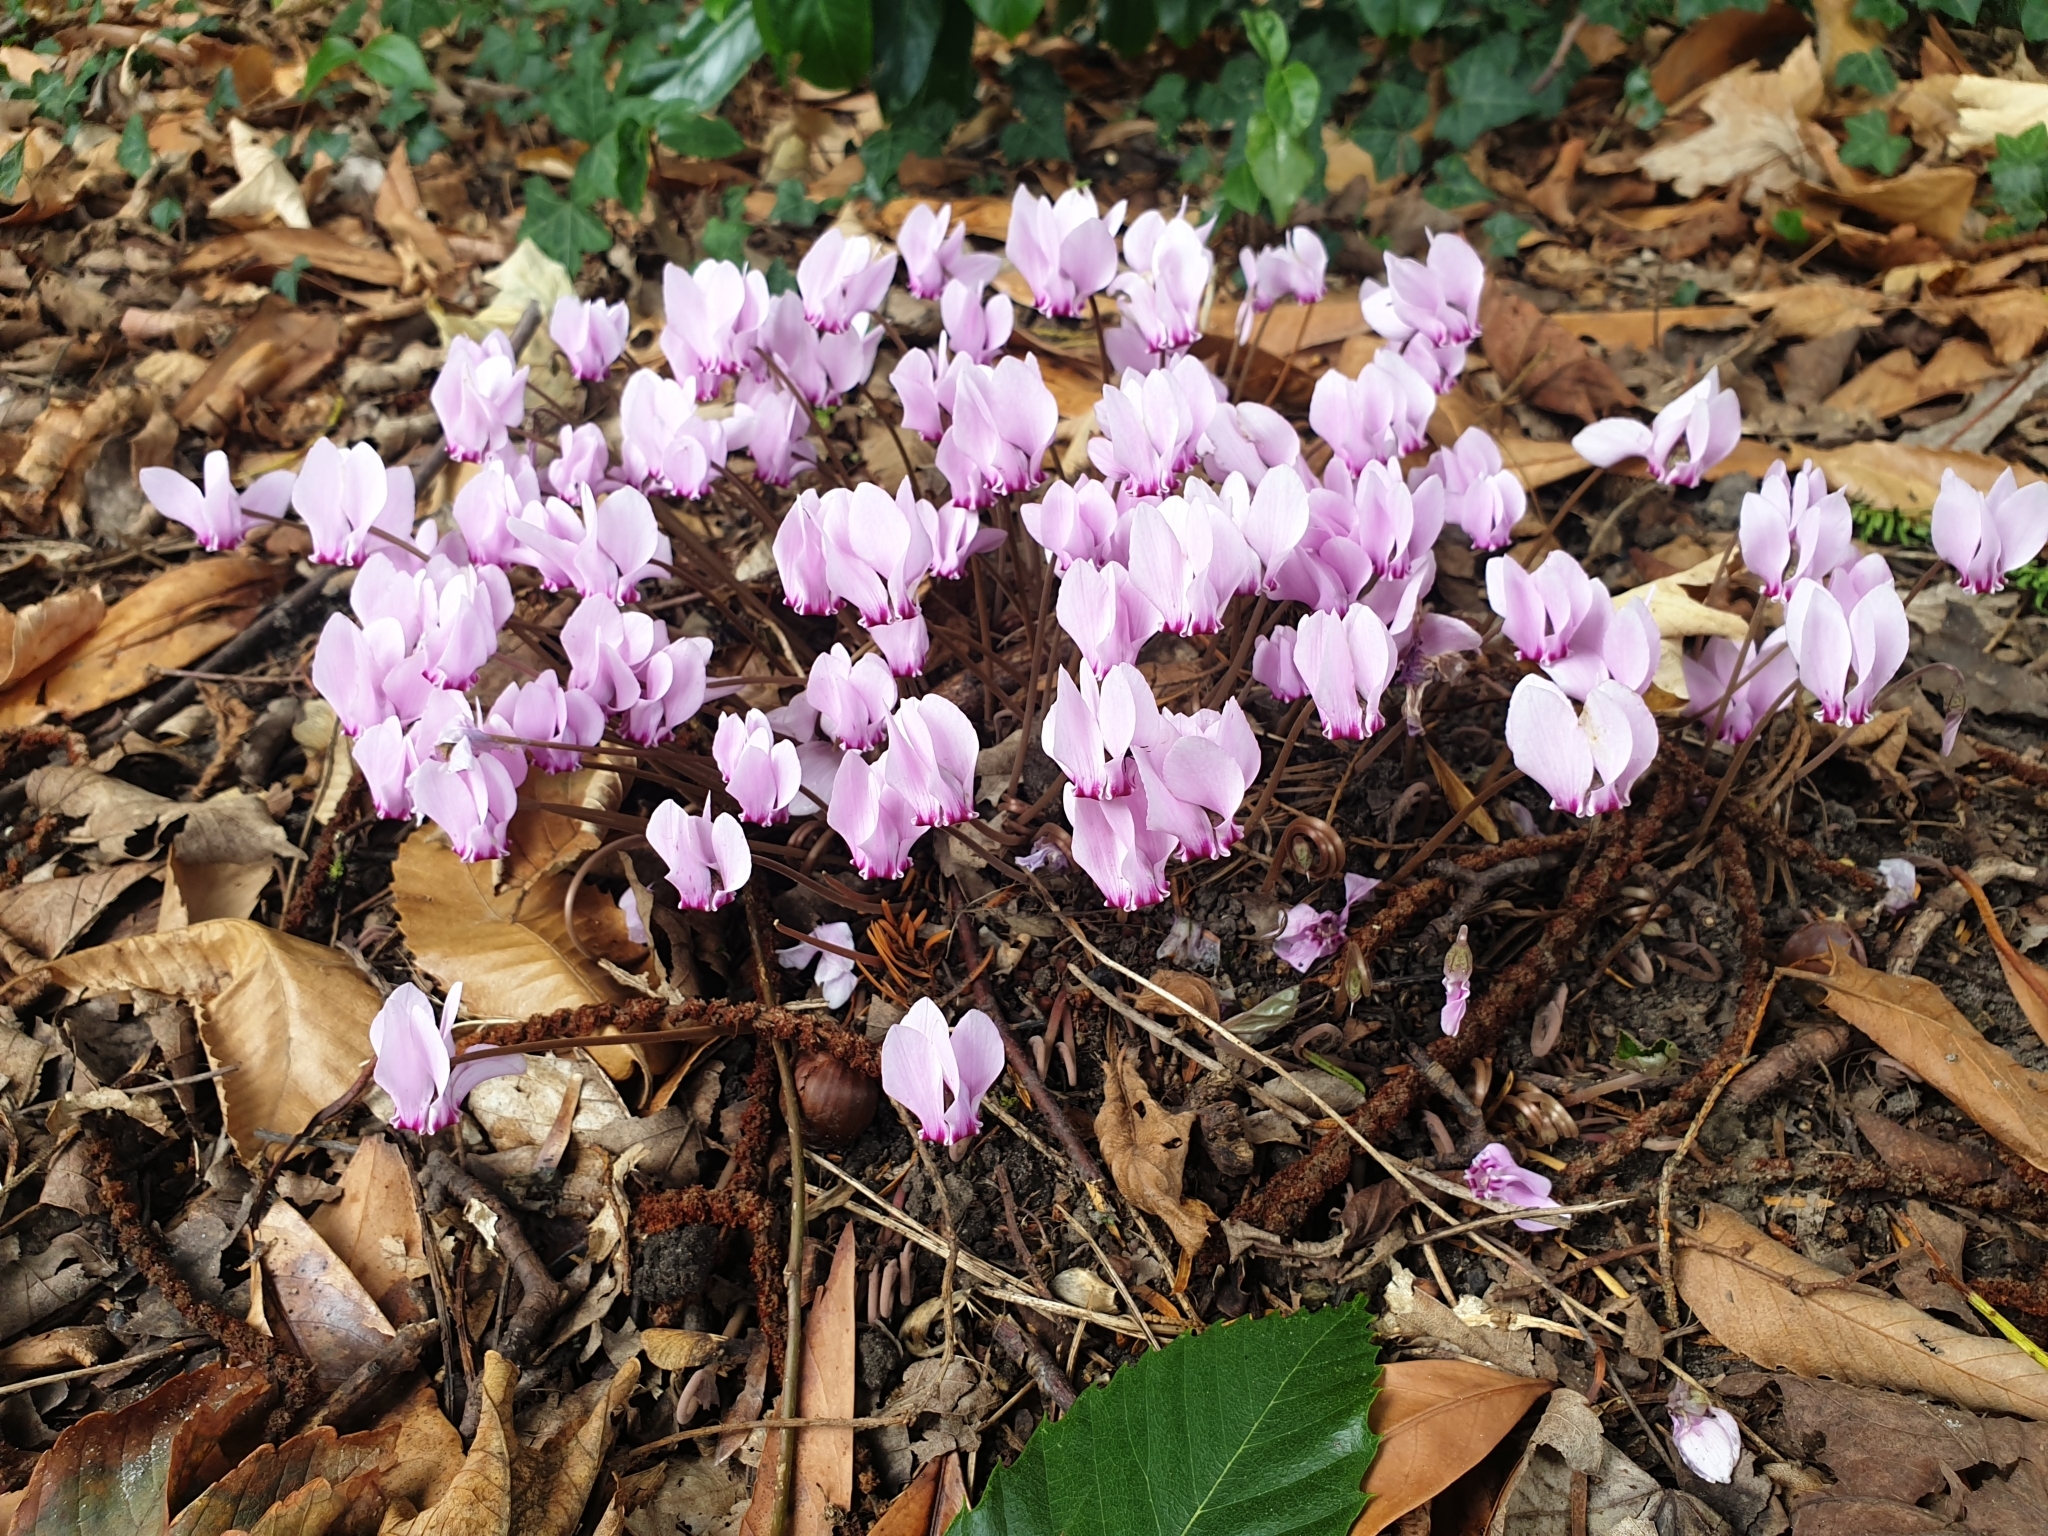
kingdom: Plantae
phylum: Tracheophyta
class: Magnoliopsida
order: Ericales
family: Primulaceae
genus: Cyclamen
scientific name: Cyclamen hederifolium
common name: Sowbread
